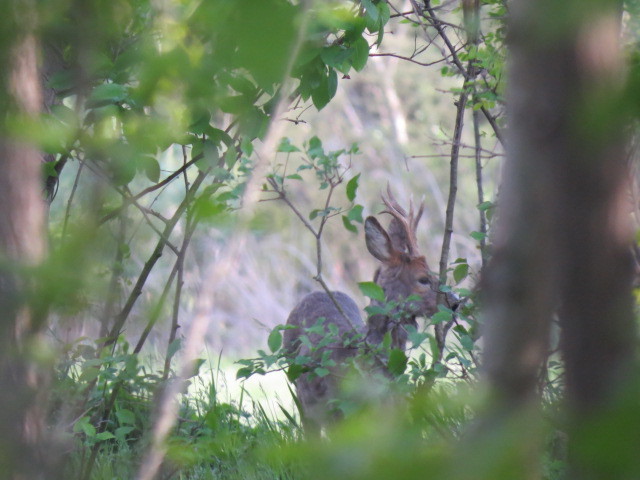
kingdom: Animalia
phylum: Chordata
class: Mammalia
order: Artiodactyla
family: Cervidae
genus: Capreolus
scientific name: Capreolus capreolus
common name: Western roe deer
